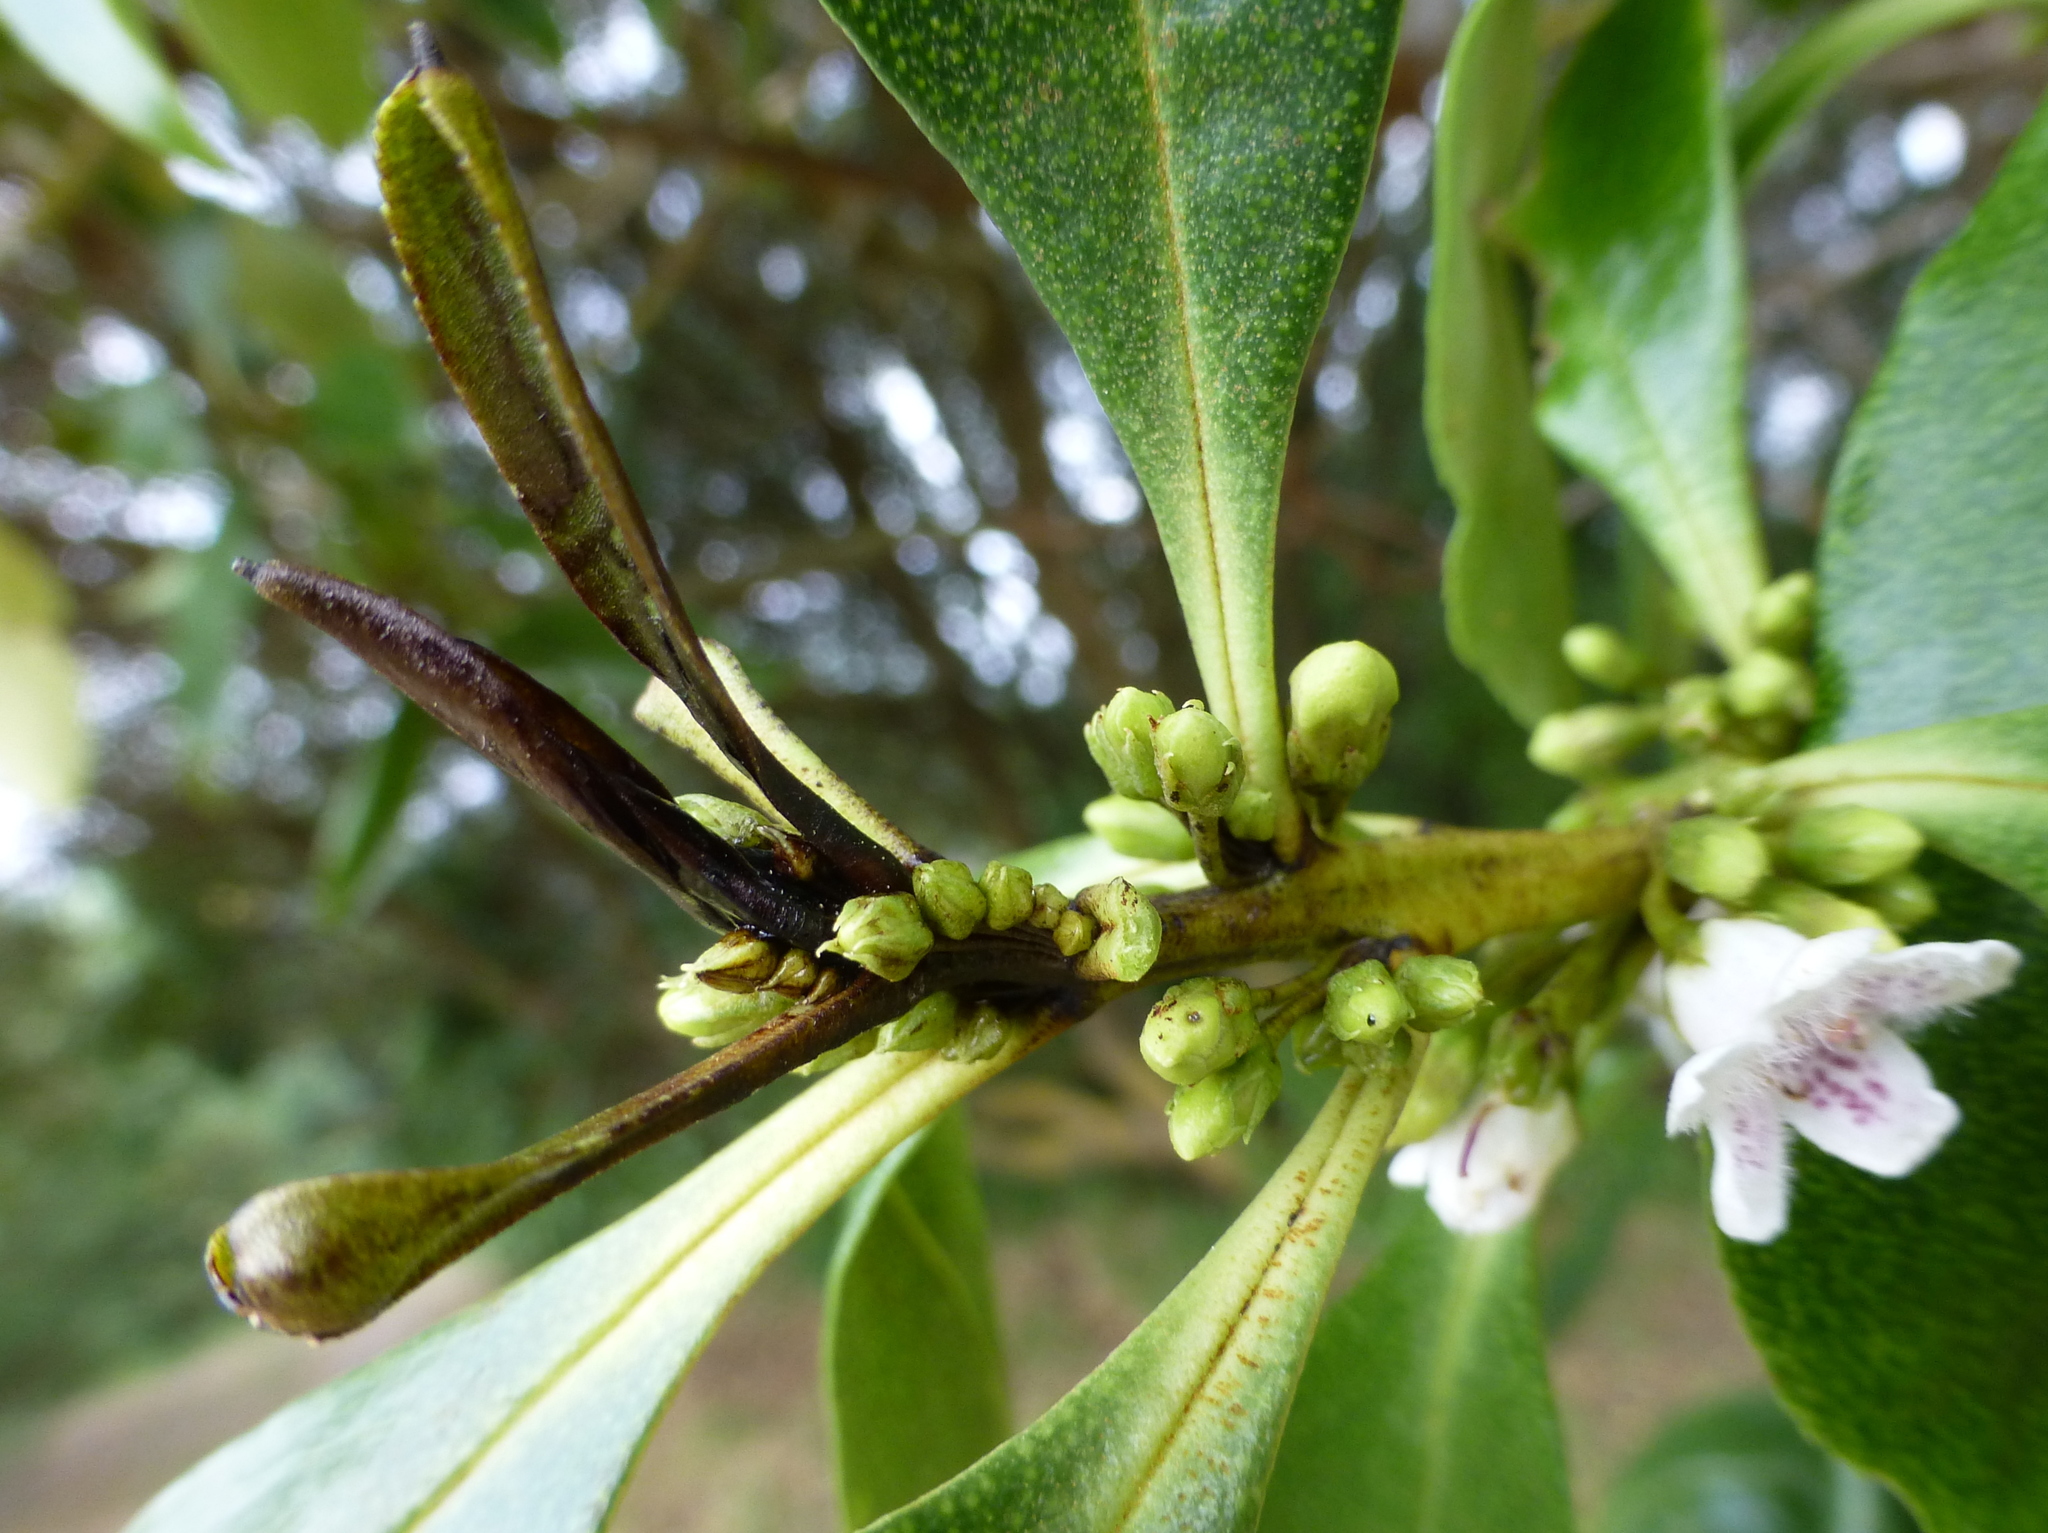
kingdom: Plantae
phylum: Tracheophyta
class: Magnoliopsida
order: Lamiales
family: Scrophulariaceae
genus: Myoporum
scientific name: Myoporum laetum
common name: Ngaio tree
